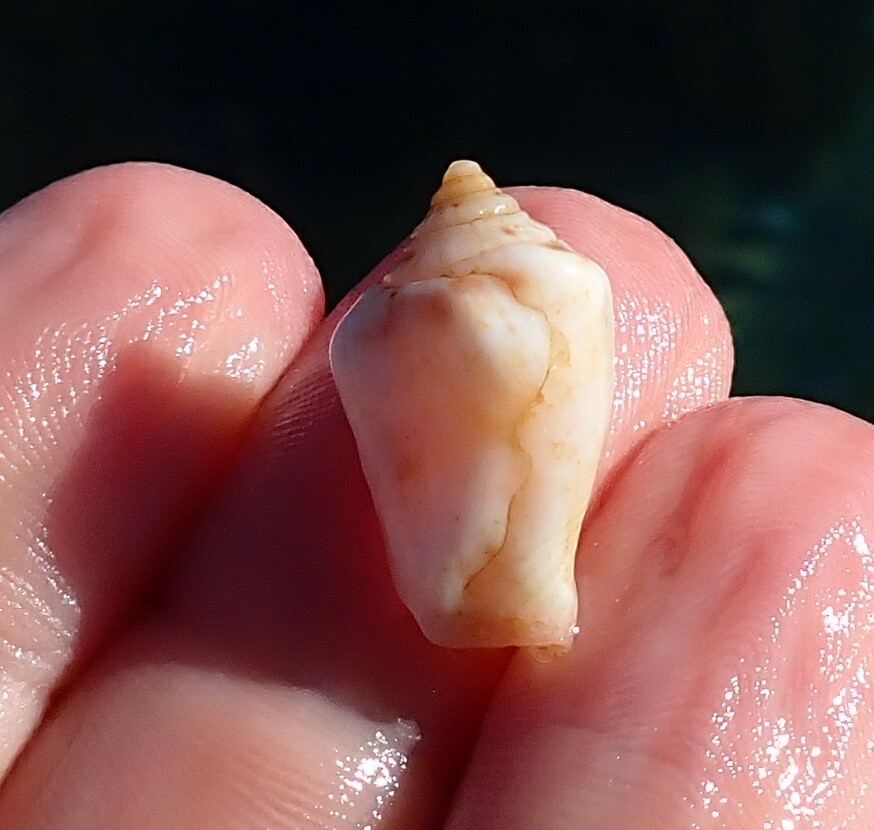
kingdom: Animalia
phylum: Mollusca
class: Gastropoda
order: Littorinimorpha
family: Strombidae
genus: Canarium
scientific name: Canarium mutabile
